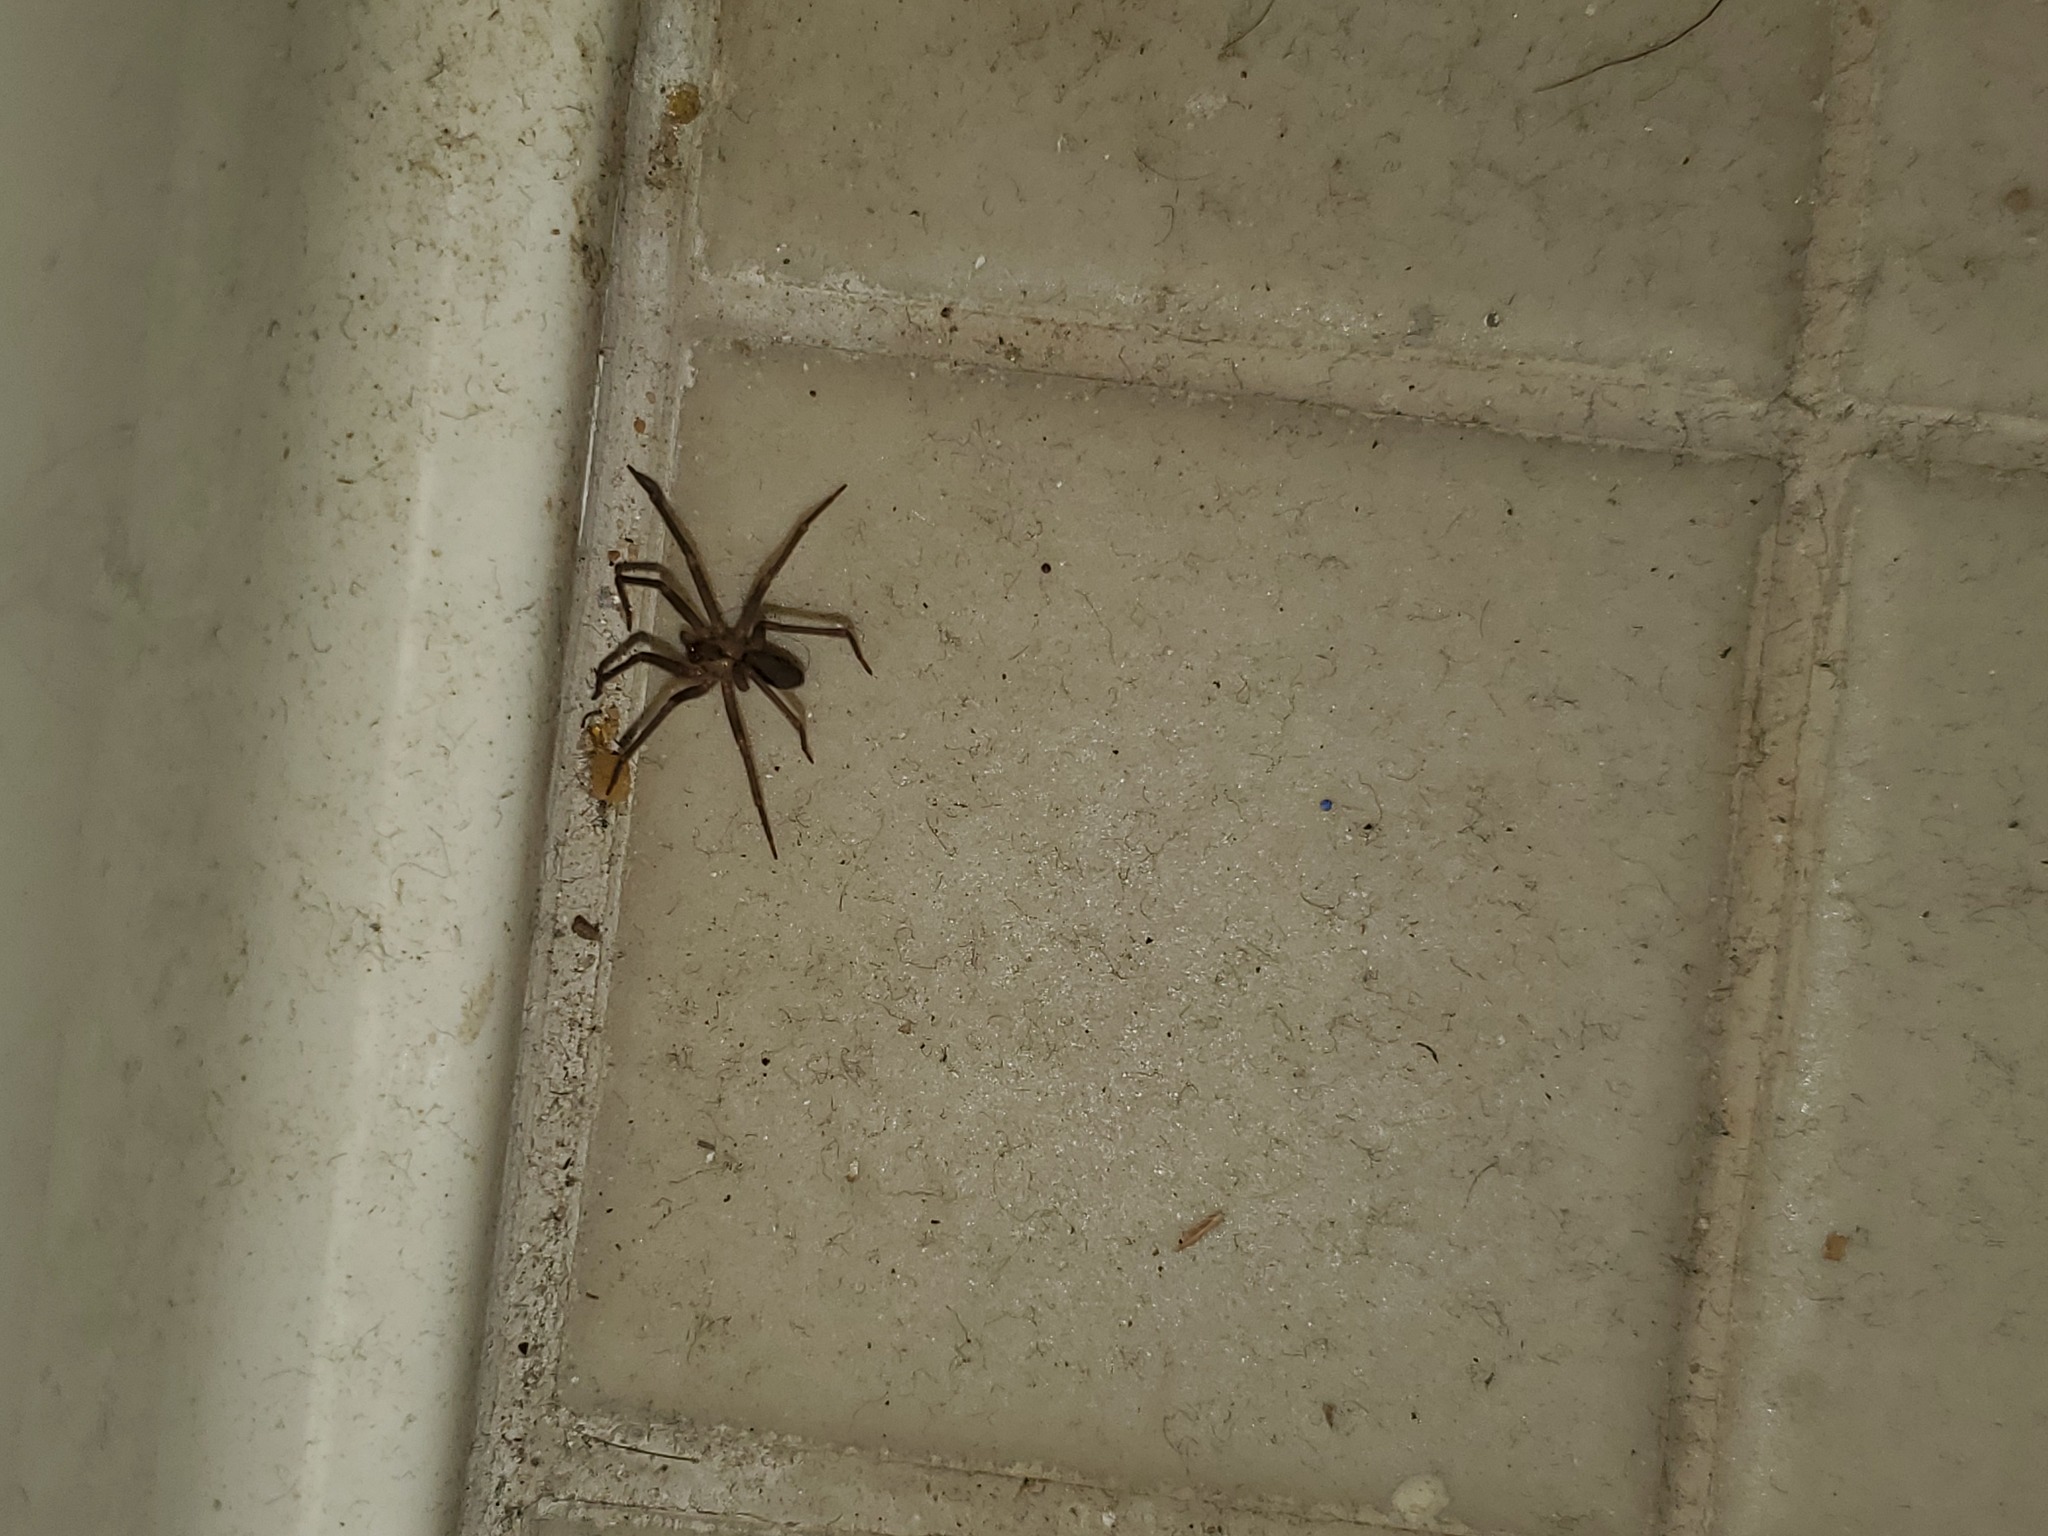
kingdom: Animalia
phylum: Arthropoda
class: Arachnida
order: Araneae
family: Sicariidae
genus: Loxosceles
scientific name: Loxosceles reclusa
